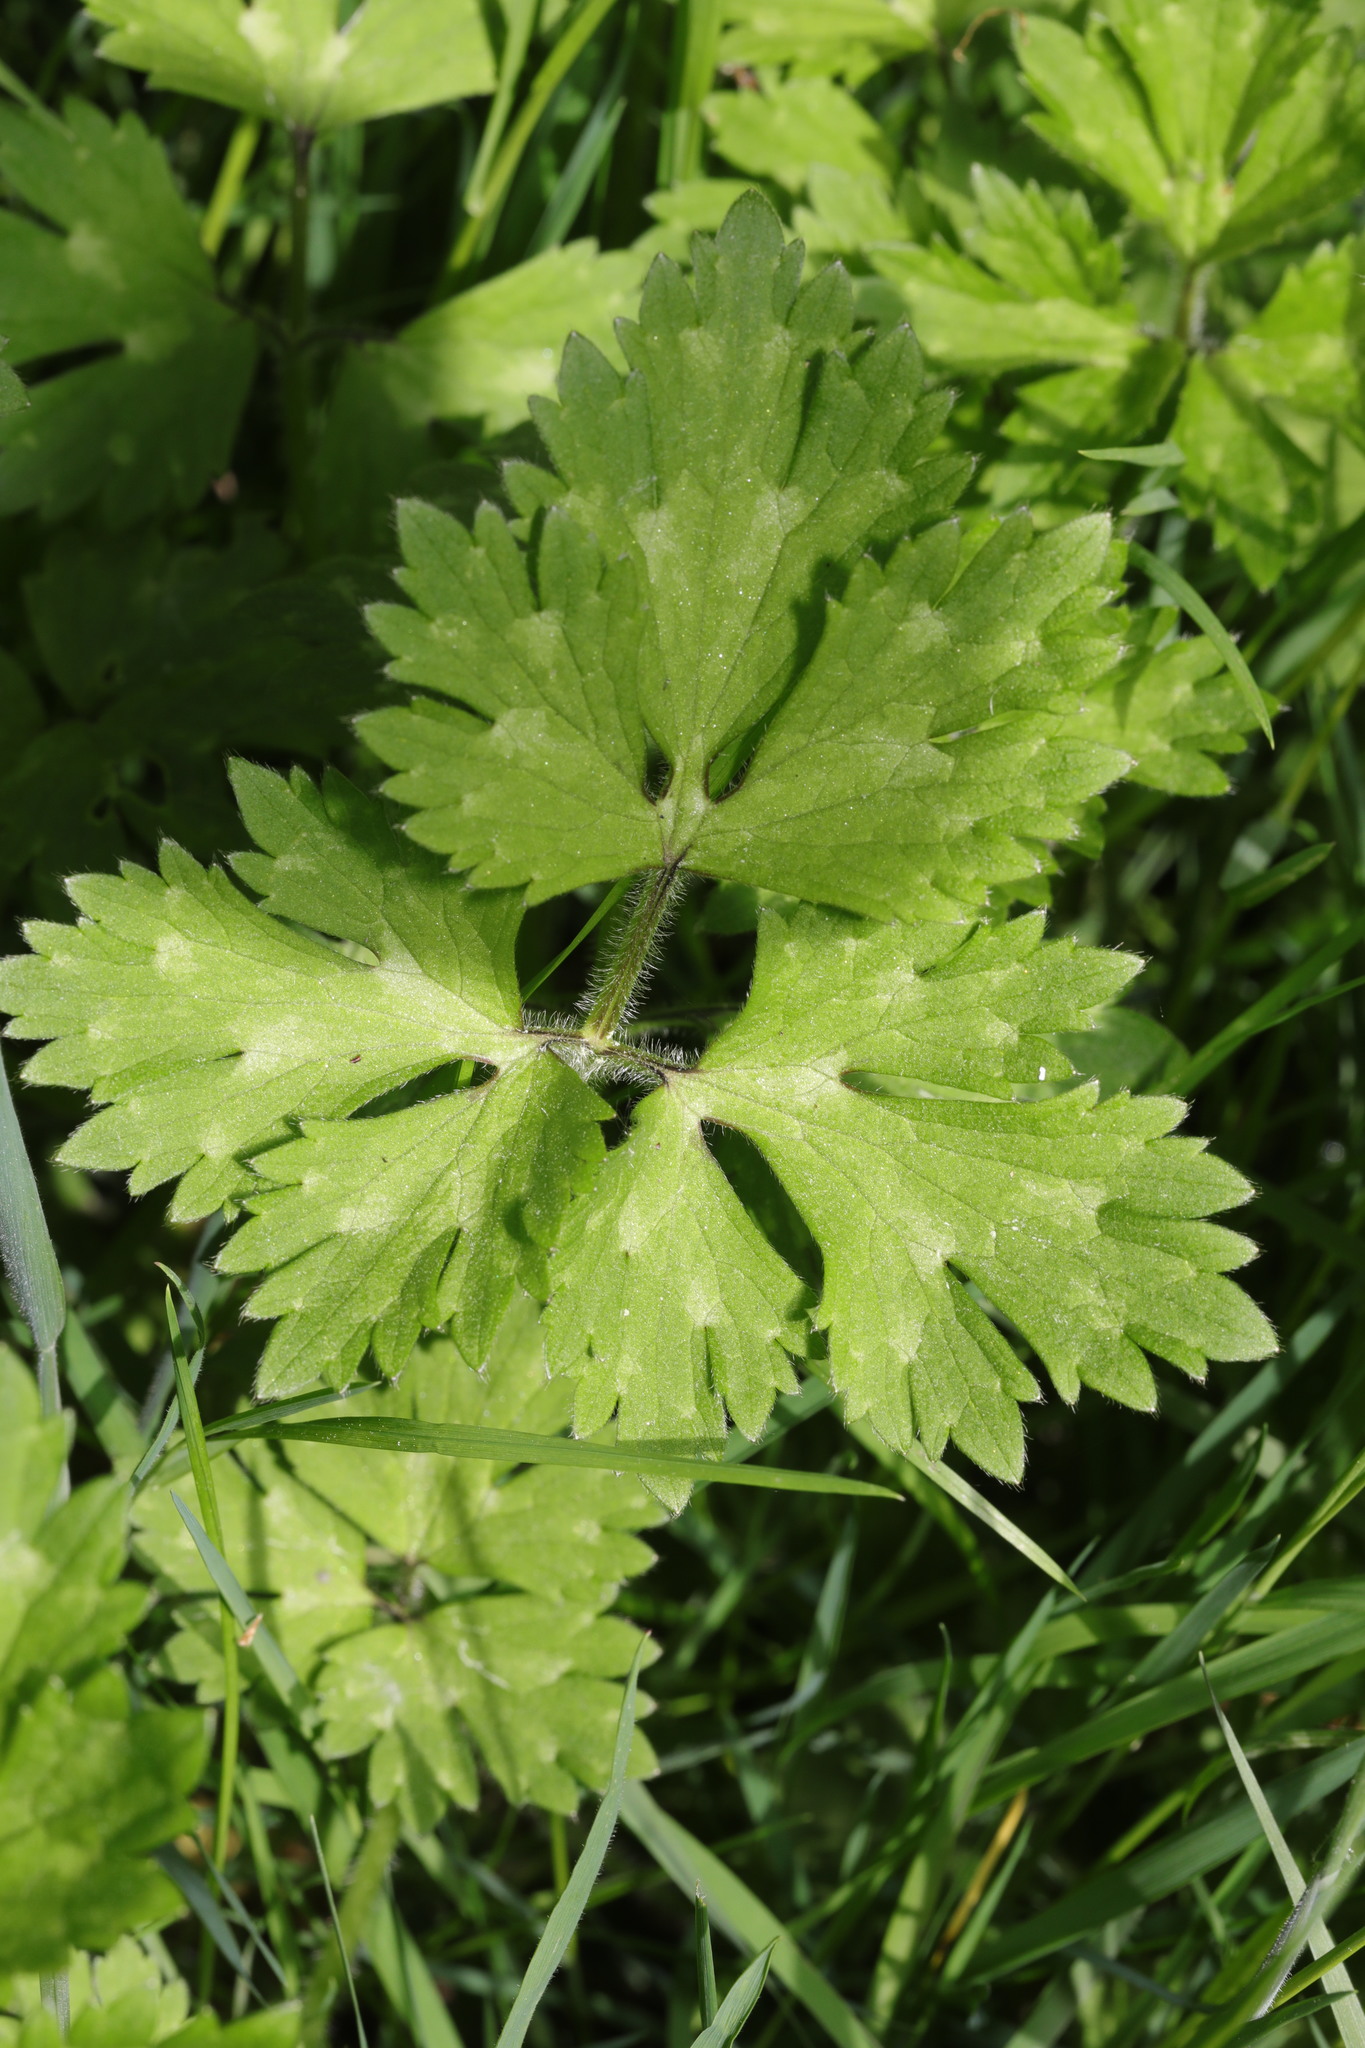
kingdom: Plantae
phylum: Tracheophyta
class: Magnoliopsida
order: Ranunculales
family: Ranunculaceae
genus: Ranunculus
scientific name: Ranunculus repens
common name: Creeping buttercup
